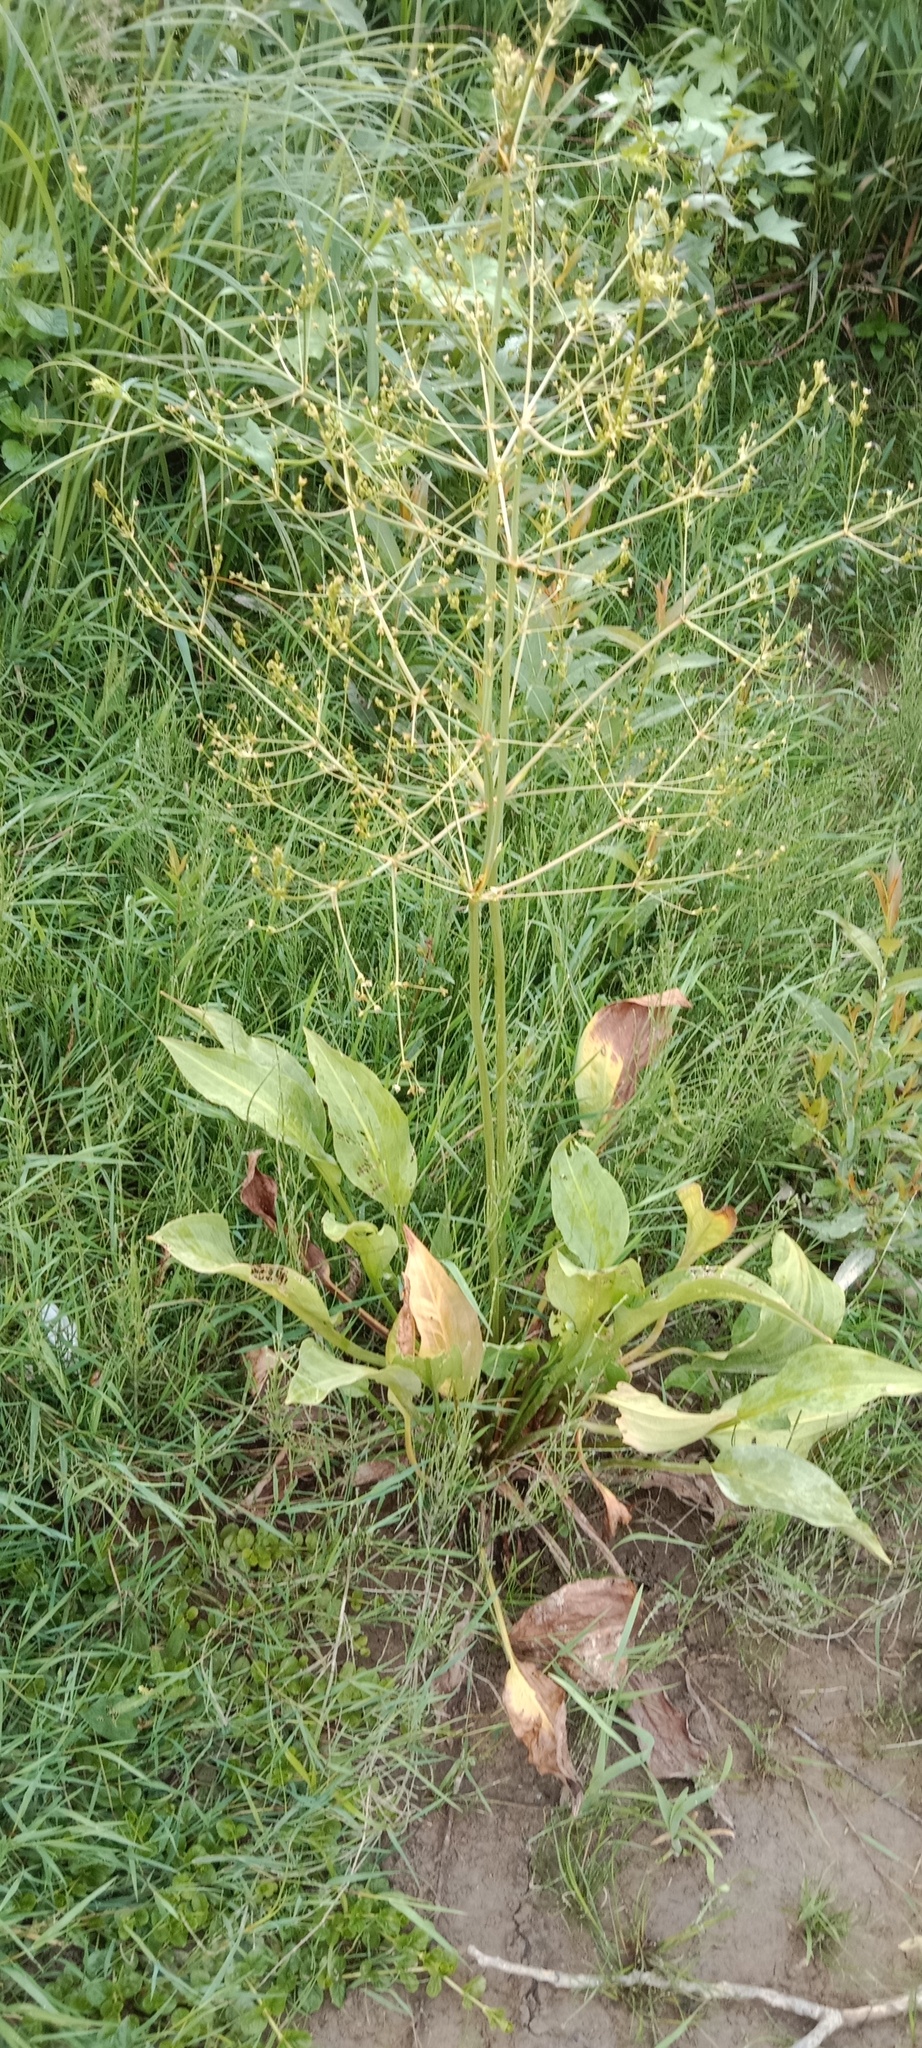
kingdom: Plantae
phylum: Tracheophyta
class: Liliopsida
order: Alismatales
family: Alismataceae
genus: Alisma
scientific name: Alisma plantago-aquatica
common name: Water-plantain
